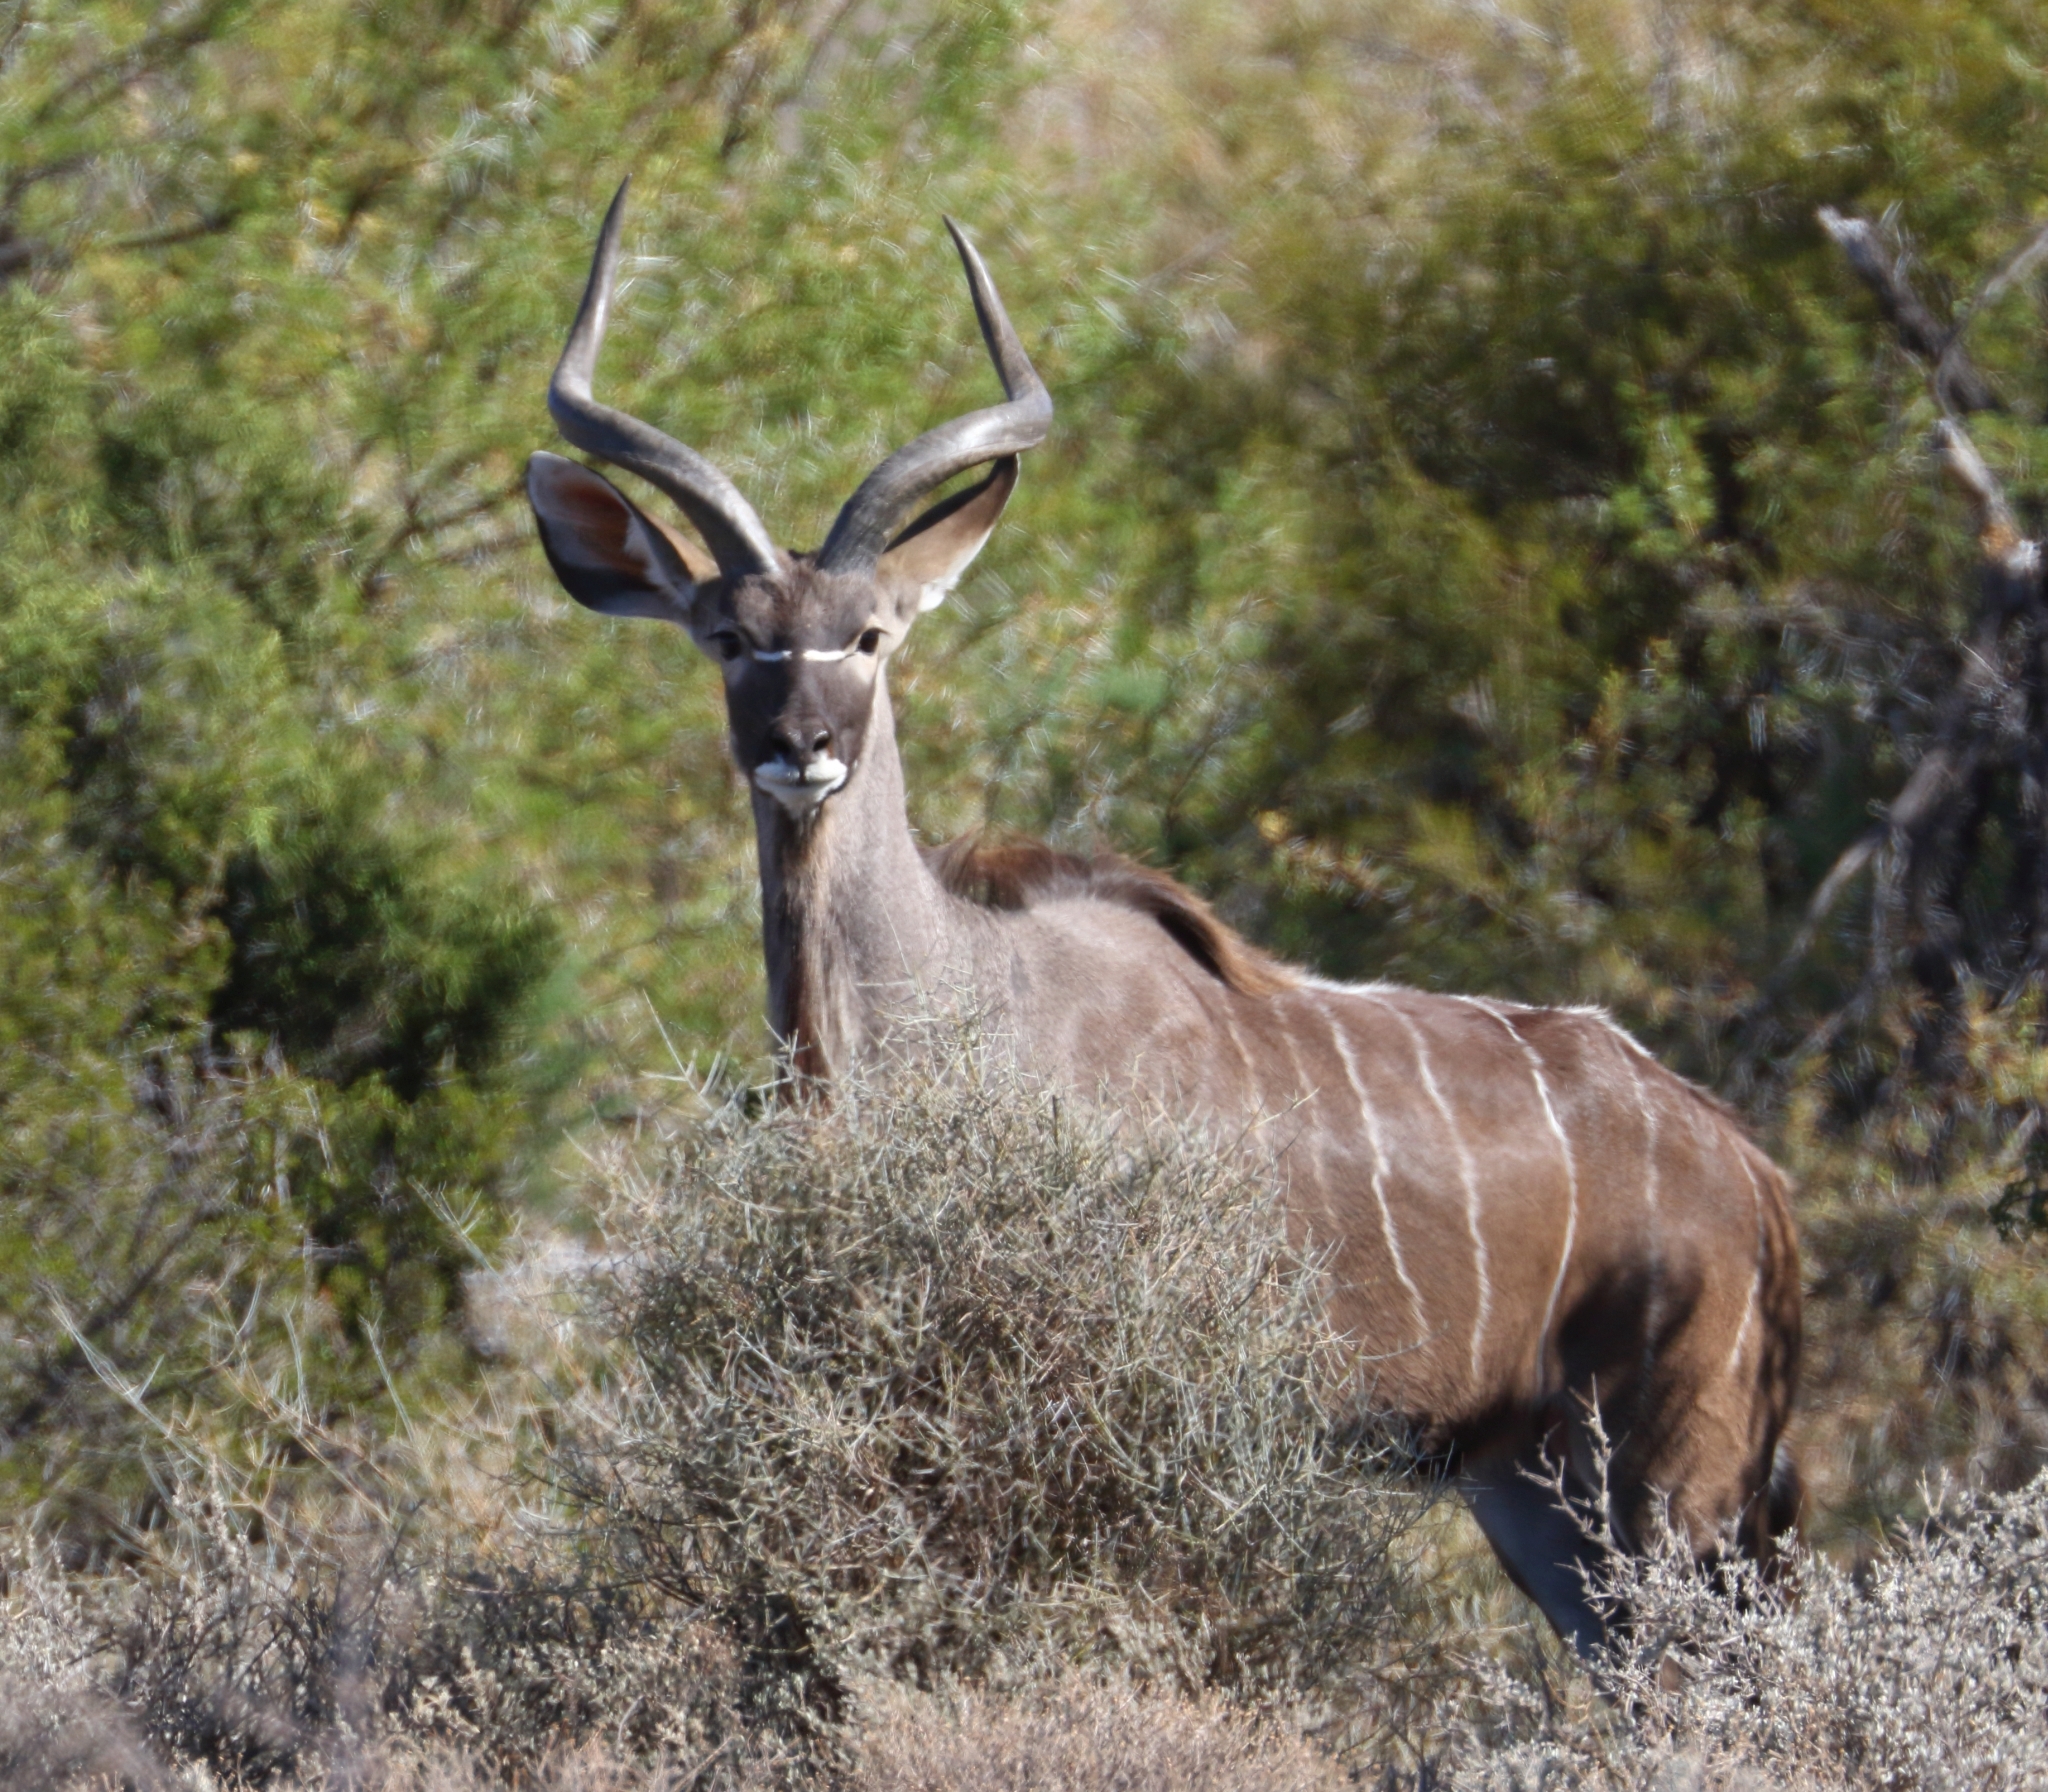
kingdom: Animalia
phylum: Chordata
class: Mammalia
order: Artiodactyla
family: Bovidae
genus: Tragelaphus
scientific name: Tragelaphus strepsiceros
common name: Greater kudu
